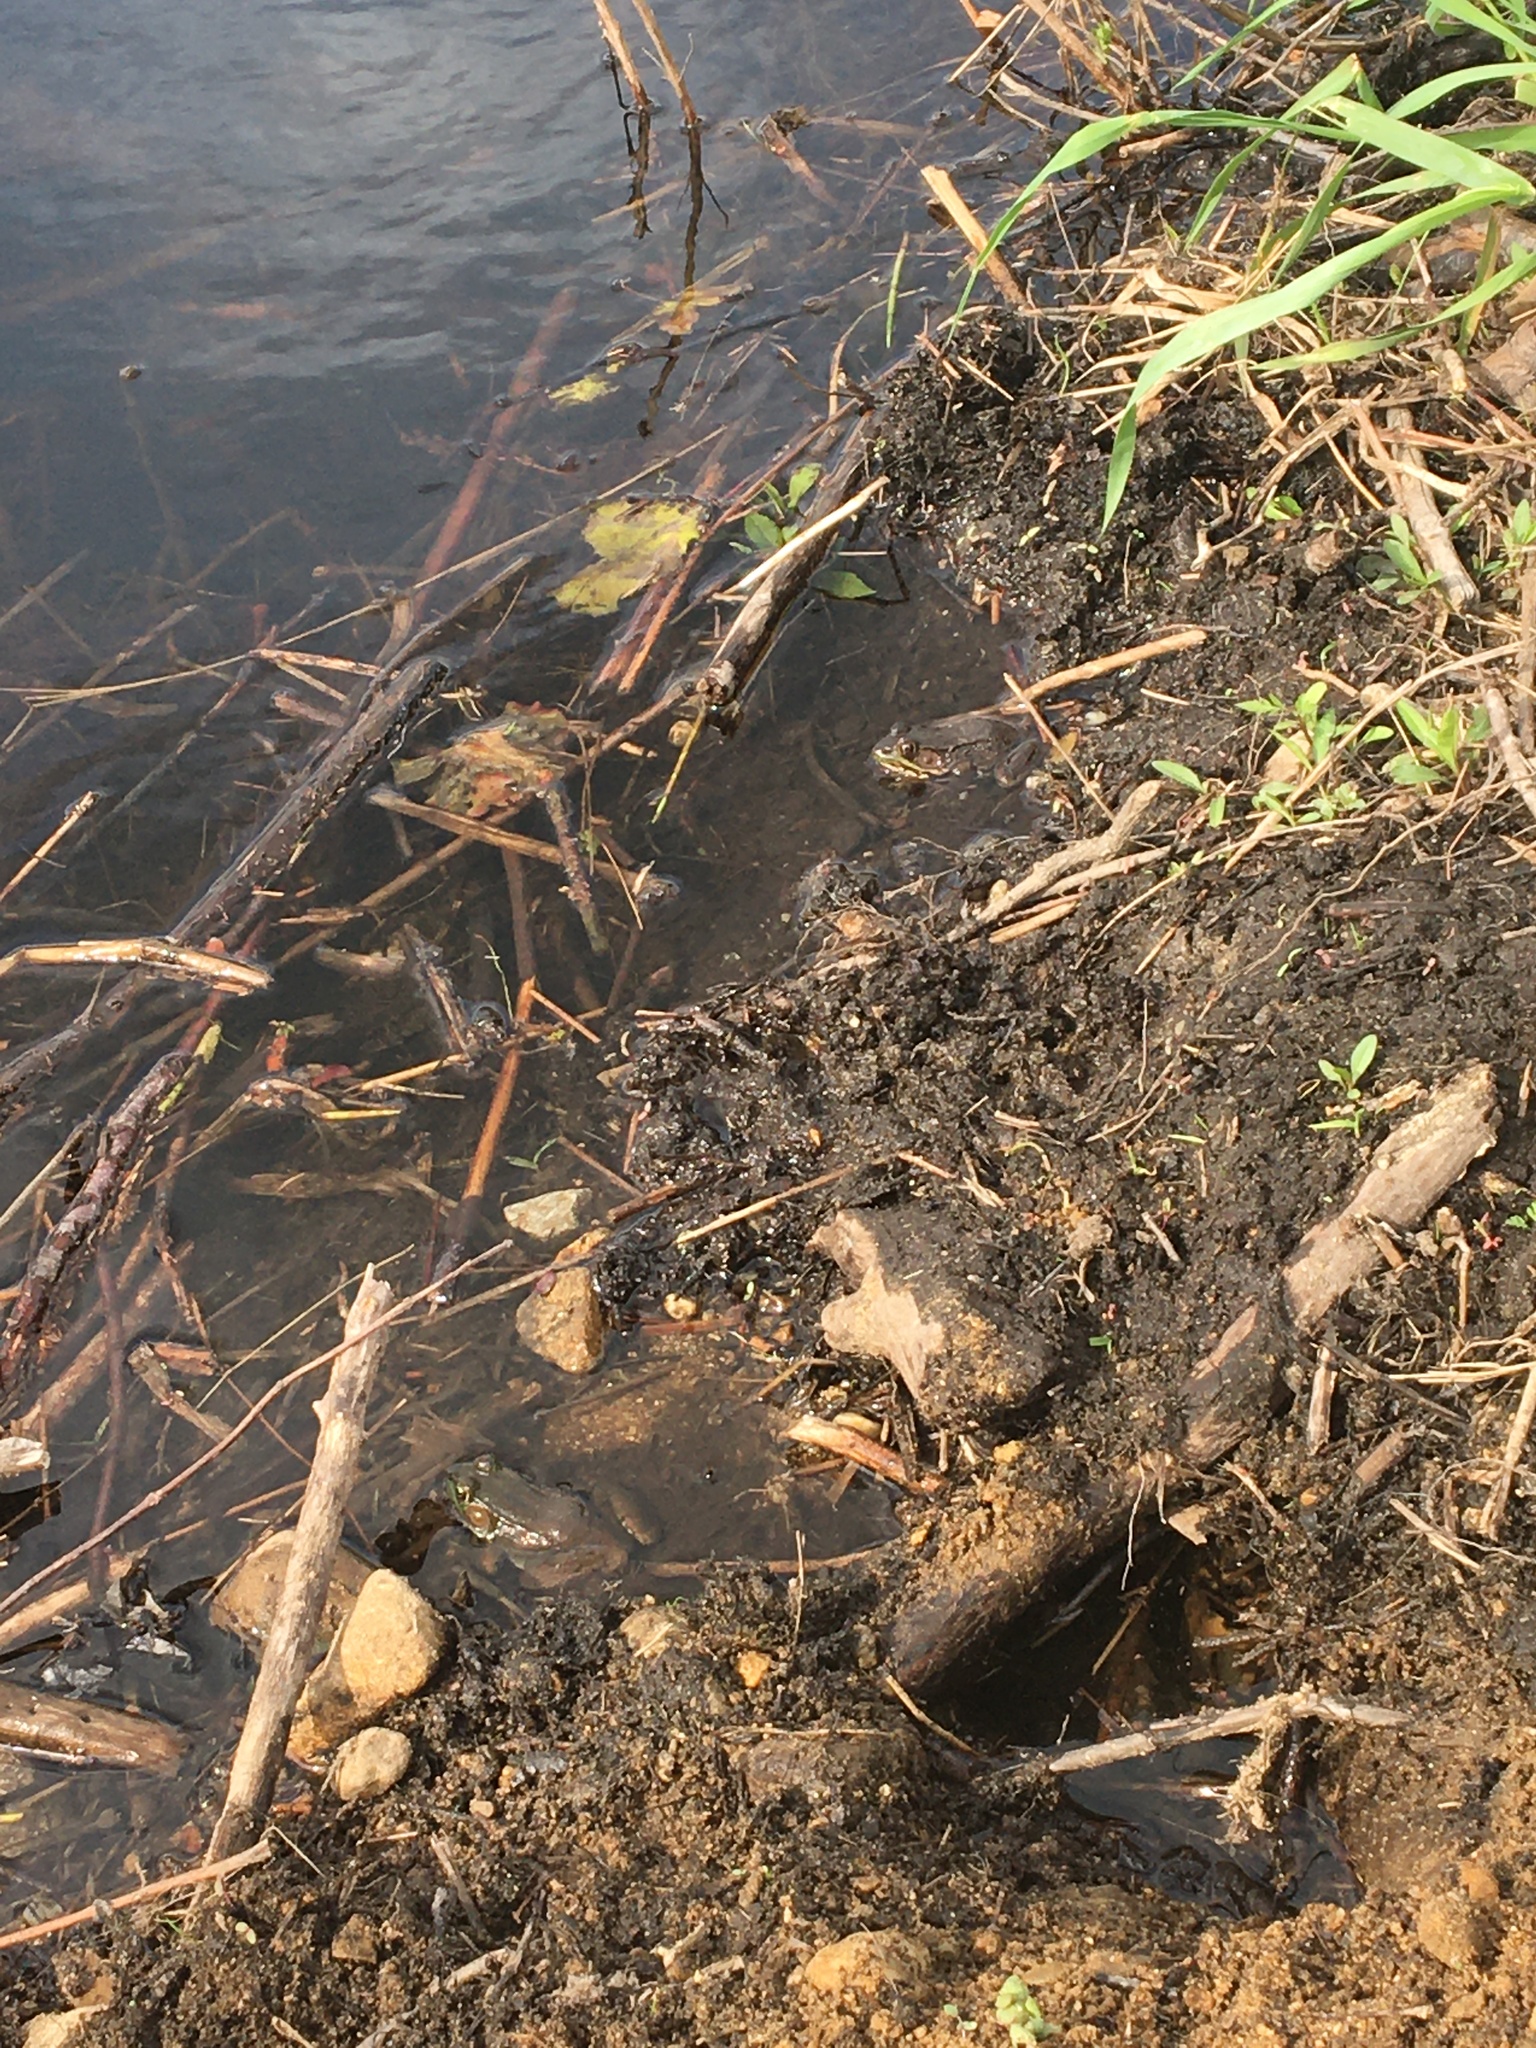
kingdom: Animalia
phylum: Chordata
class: Amphibia
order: Anura
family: Ranidae
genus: Lithobates
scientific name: Lithobates clamitans
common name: Green frog
